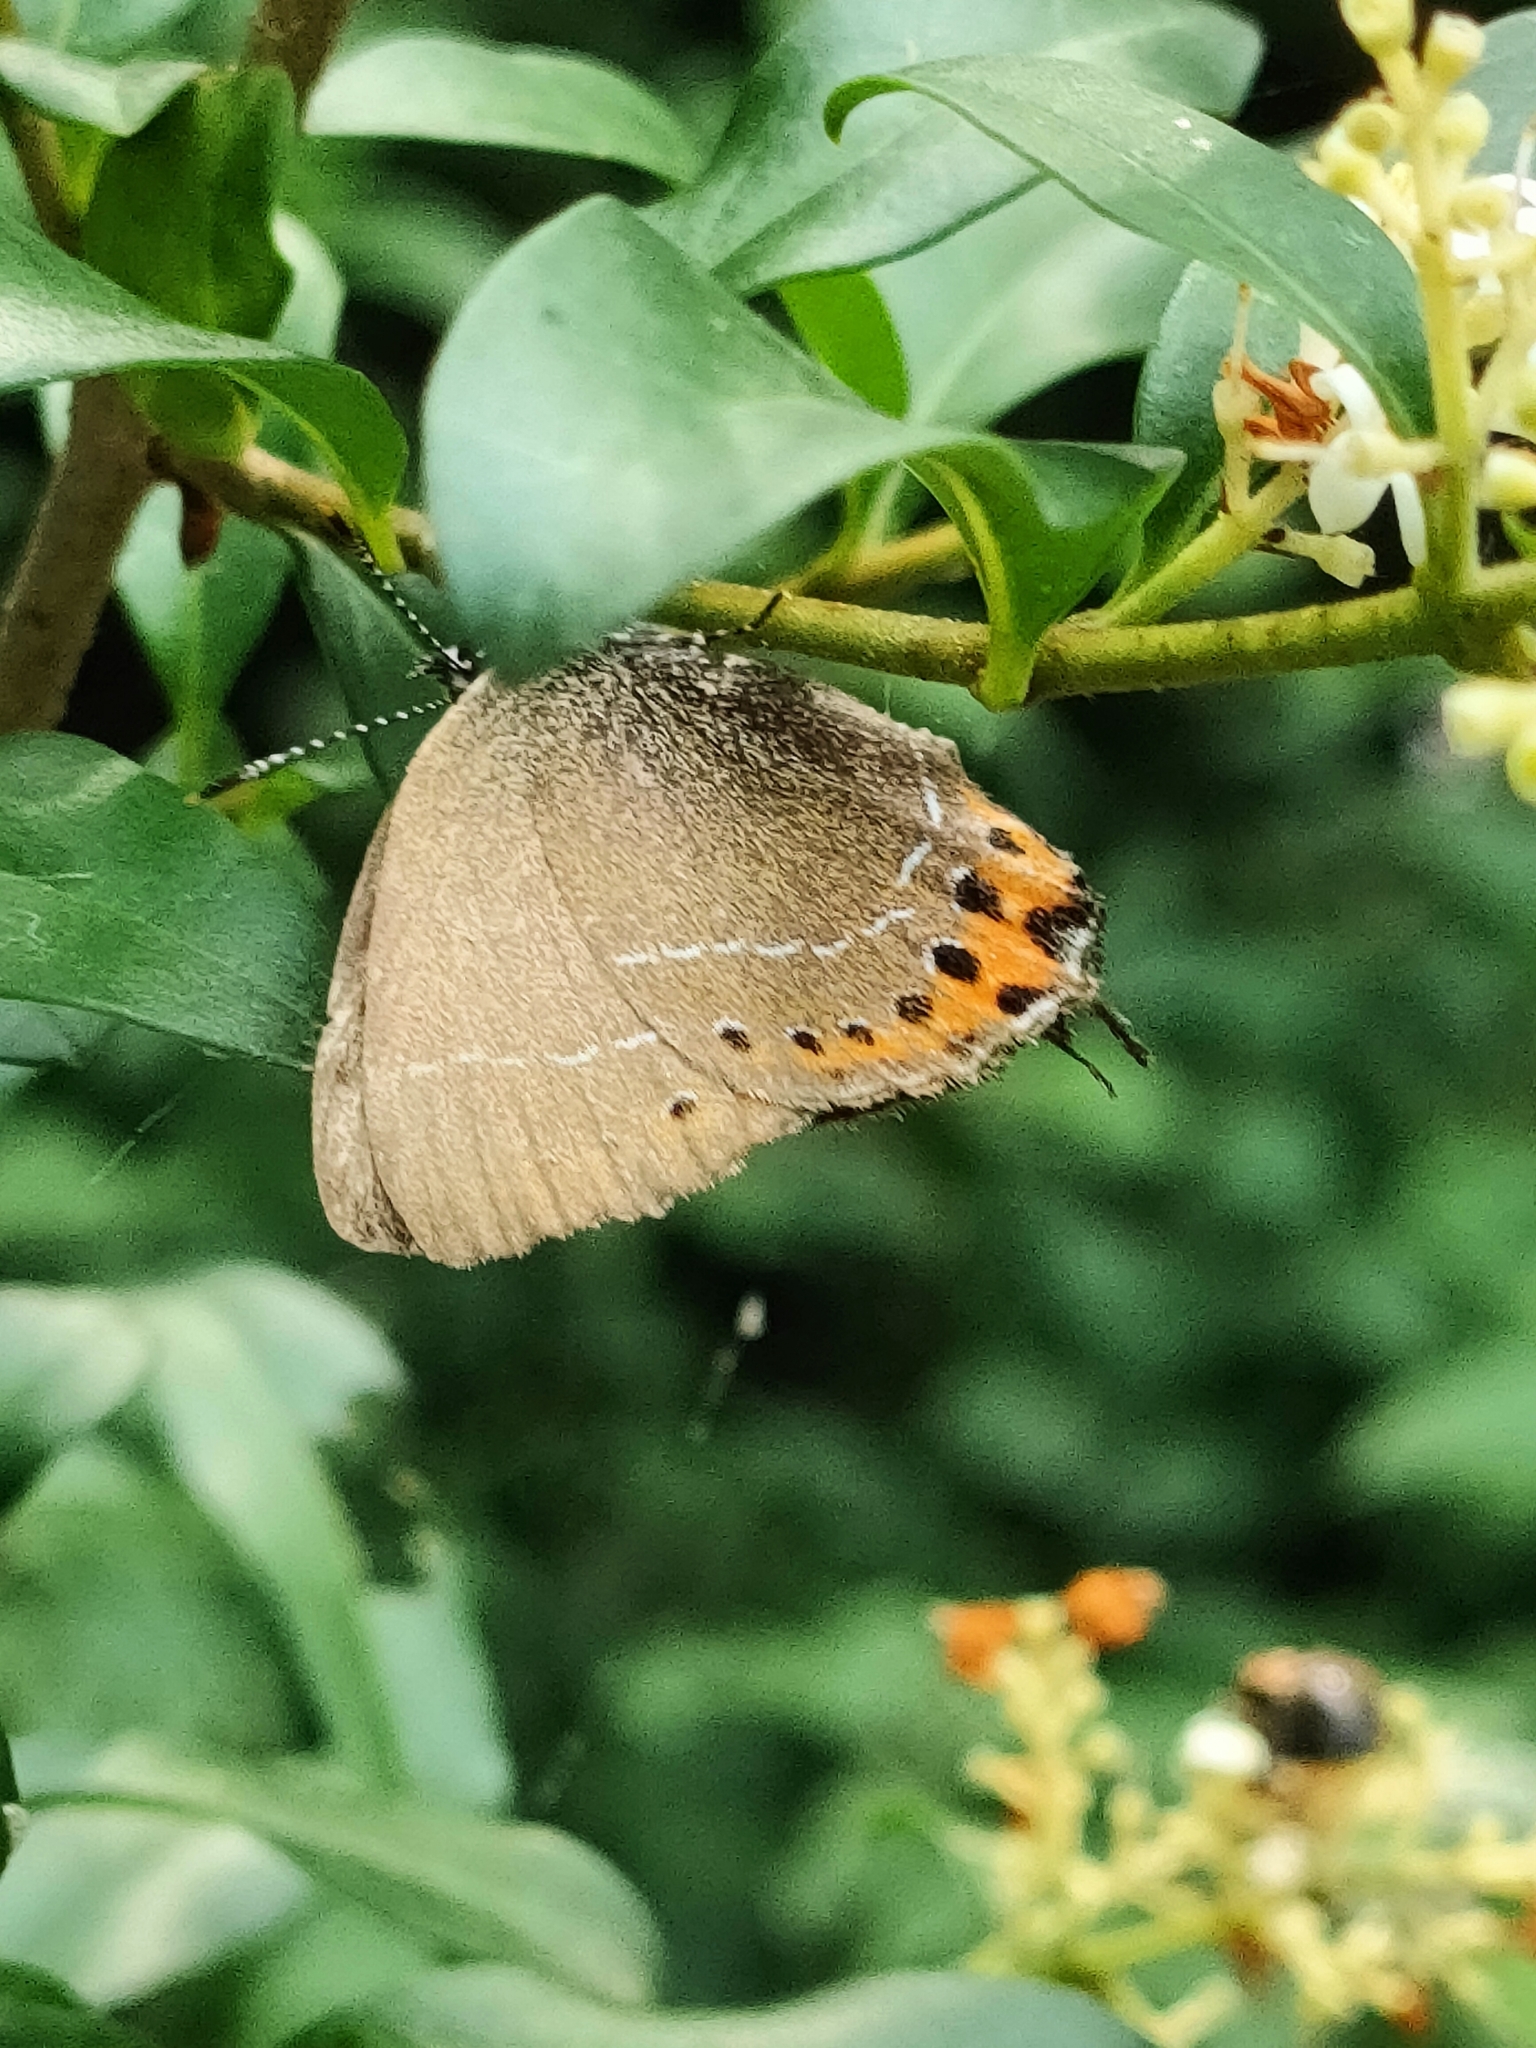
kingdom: Animalia
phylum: Arthropoda
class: Insecta
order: Lepidoptera
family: Lycaenidae
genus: Fixsenia
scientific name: Fixsenia pruni
